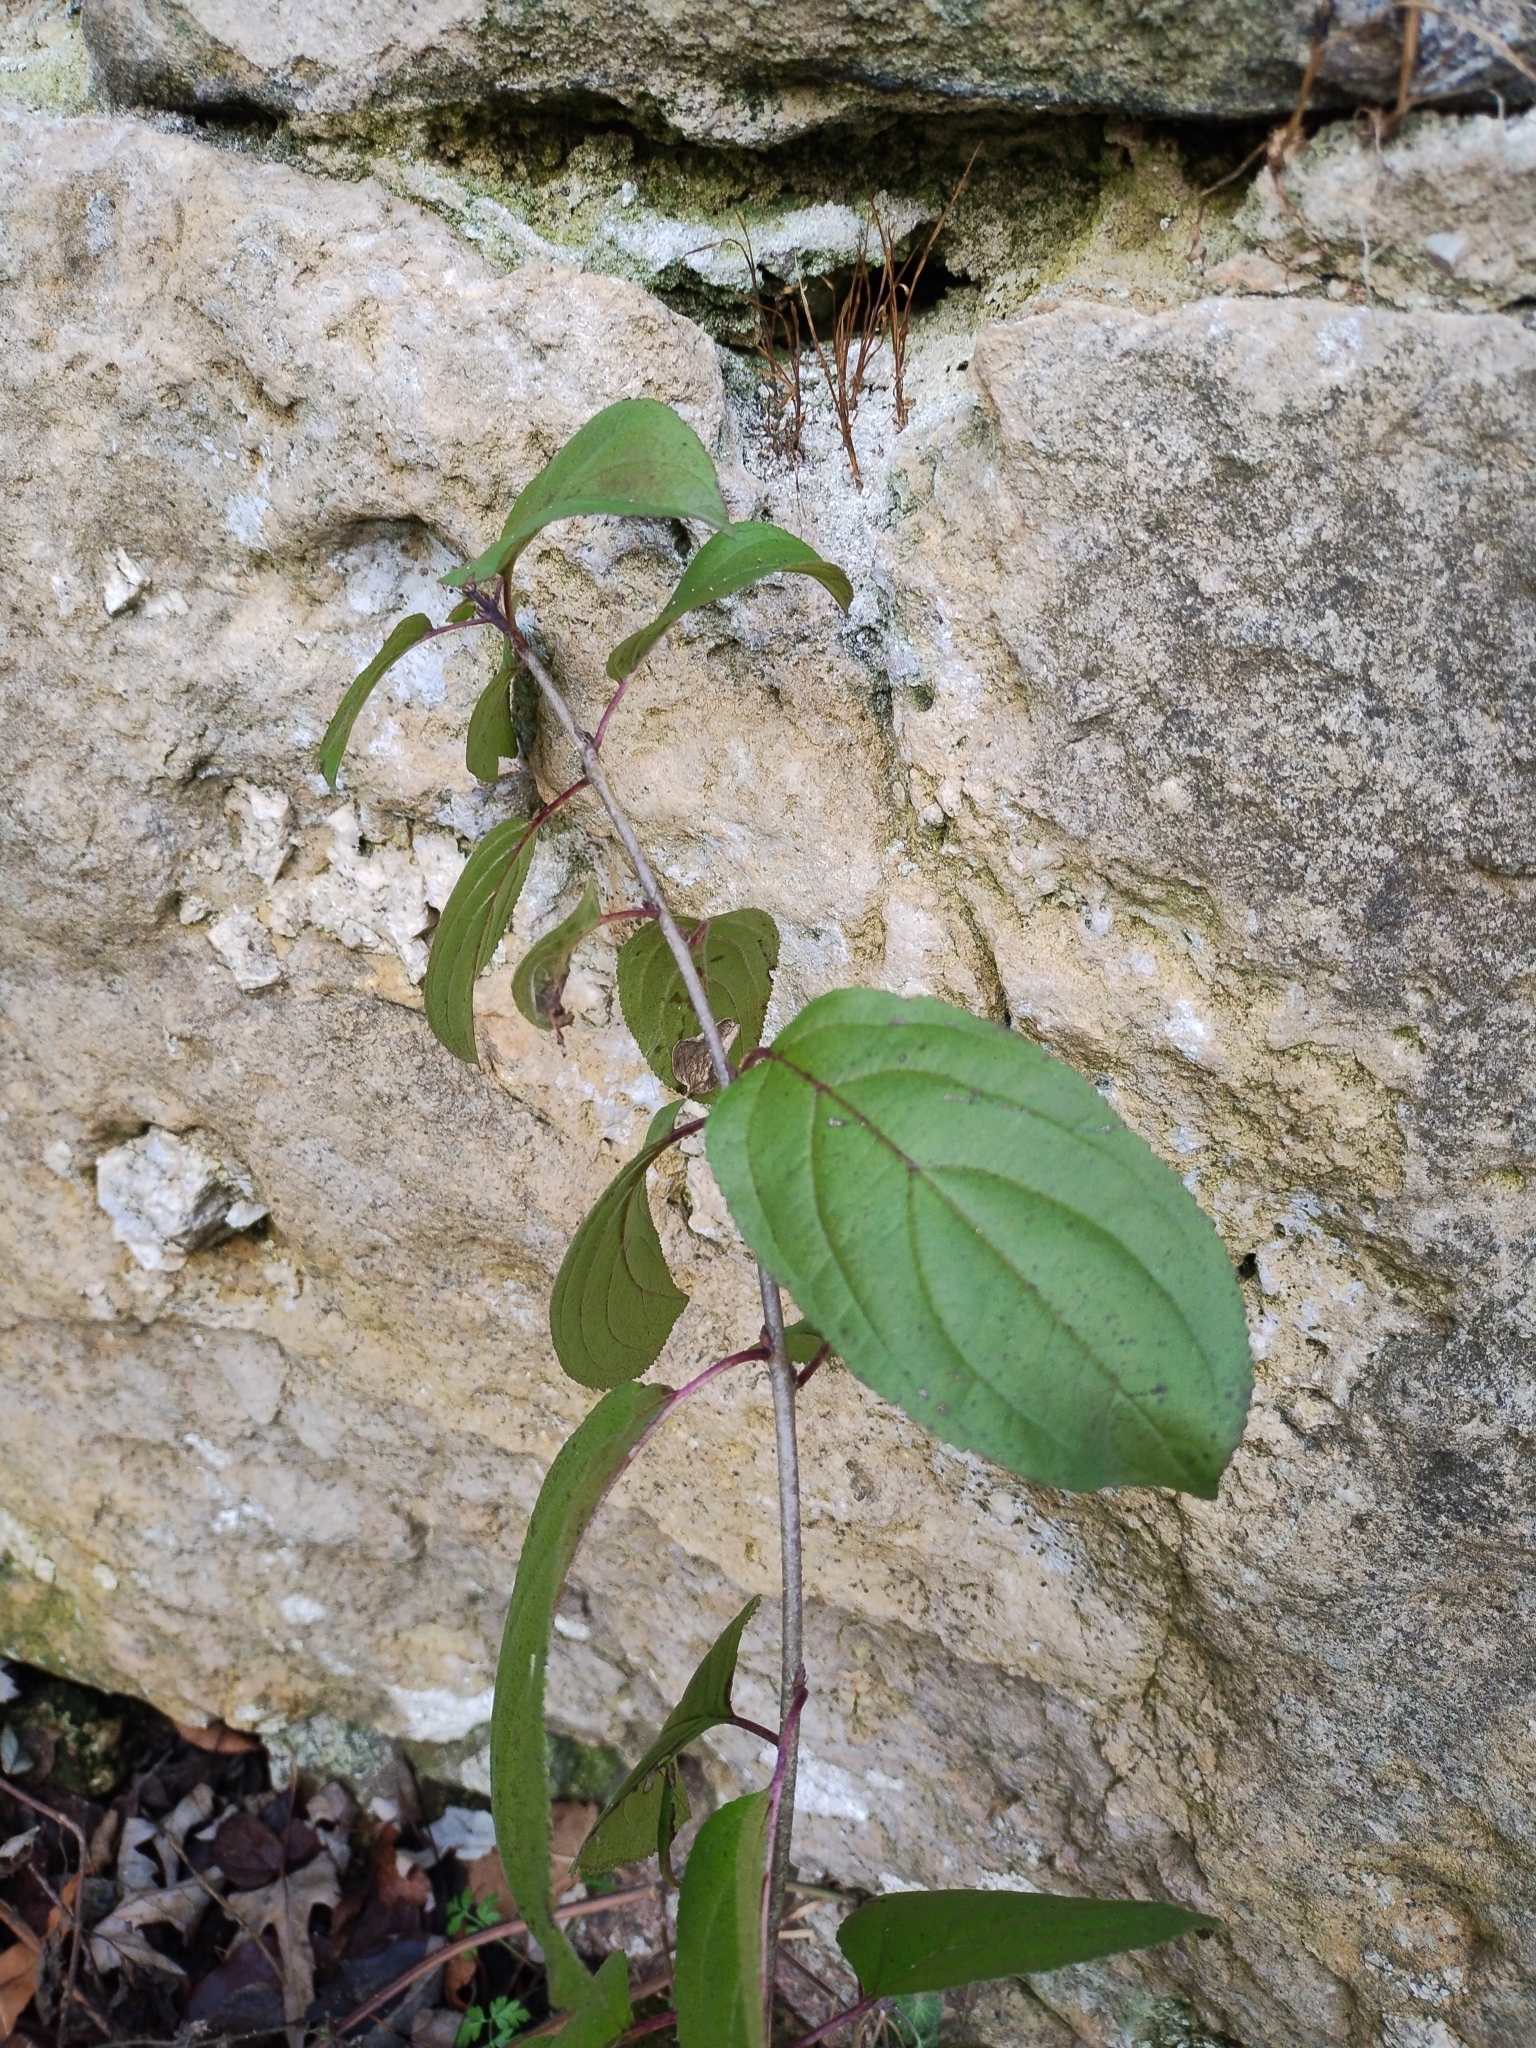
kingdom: Plantae
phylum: Tracheophyta
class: Magnoliopsida
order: Rosales
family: Rhamnaceae
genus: Rhamnus
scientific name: Rhamnus cathartica
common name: Common buckthorn
